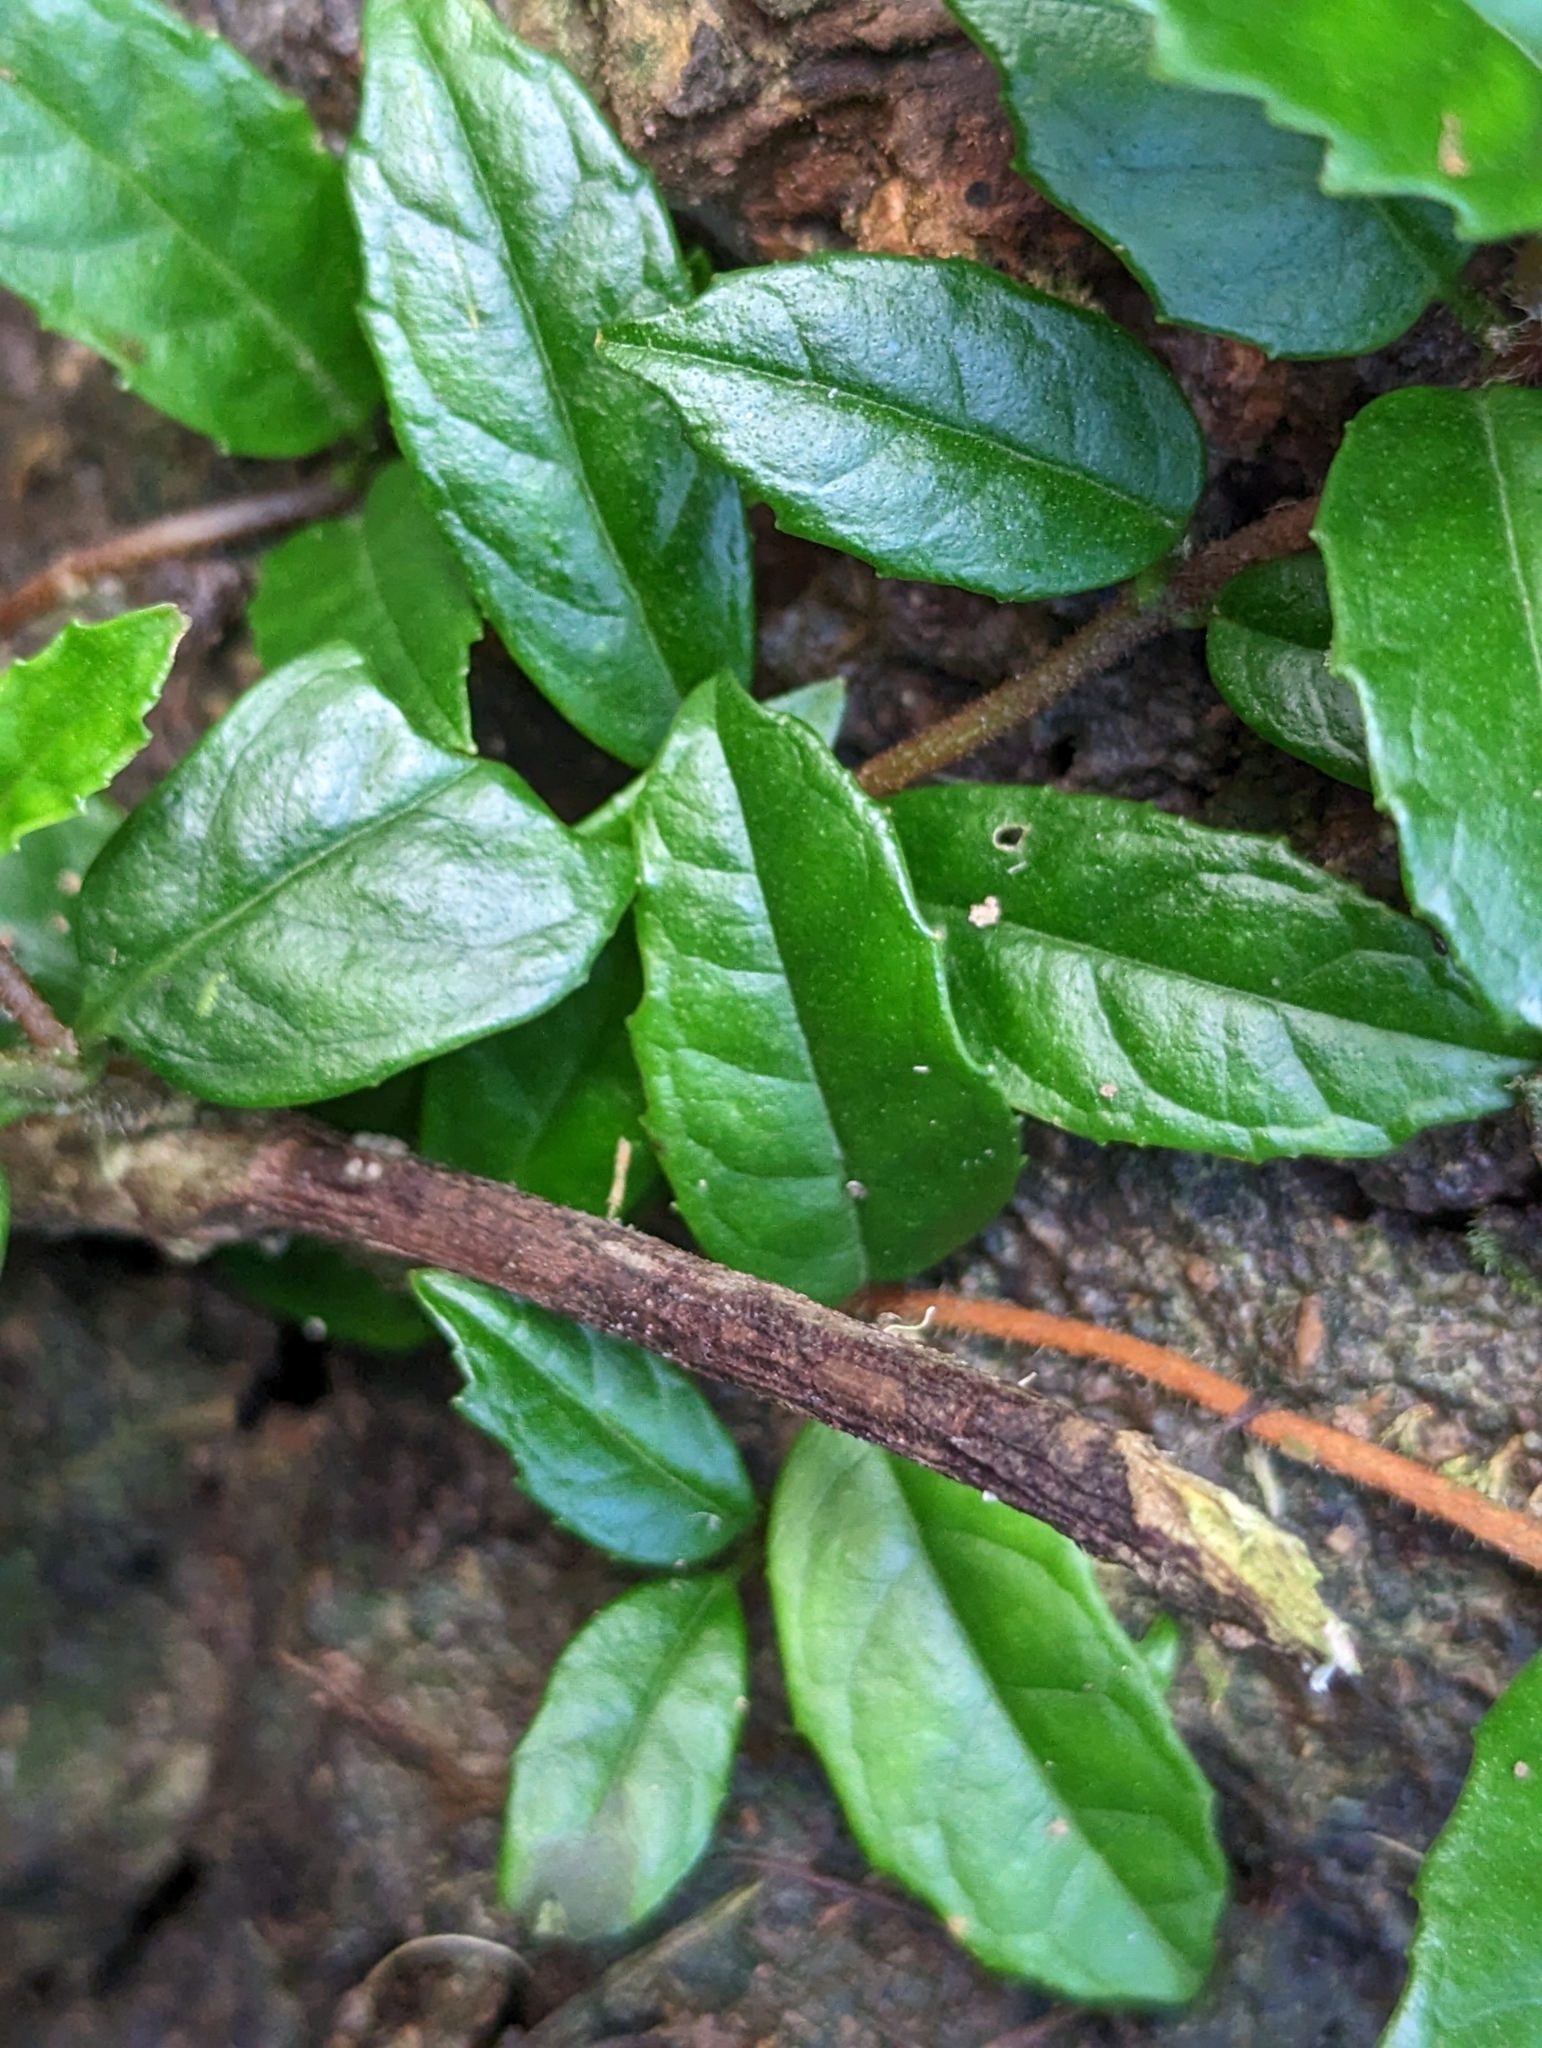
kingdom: Plantae
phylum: Tracheophyta
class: Magnoliopsida
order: Cornales
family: Hydrangeaceae
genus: Hydrangea
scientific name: Hydrangea viburnoides
